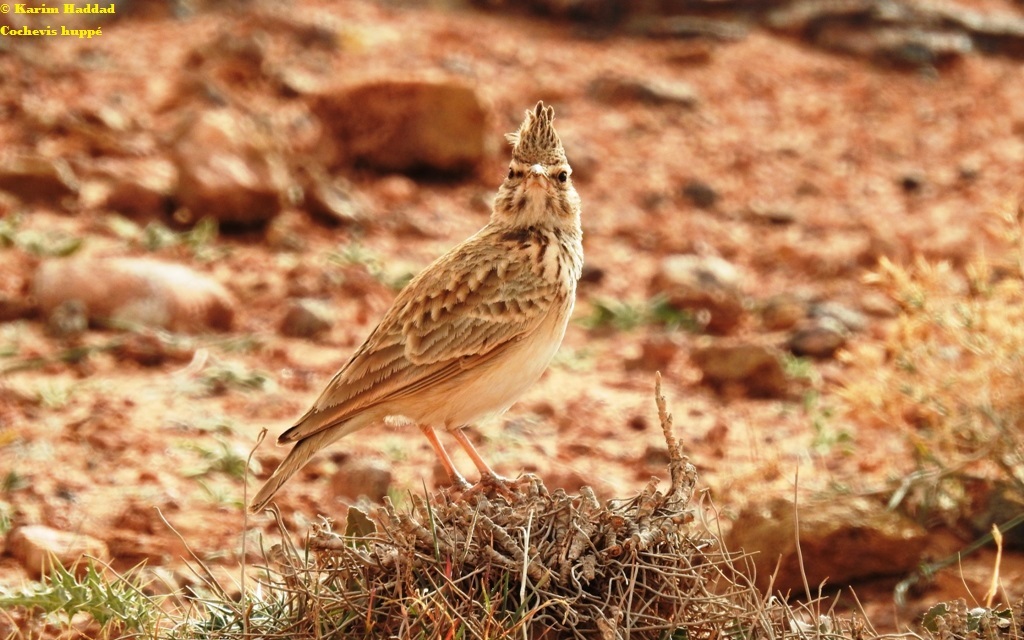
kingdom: Animalia
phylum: Chordata
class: Aves
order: Passeriformes
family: Alaudidae
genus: Galerida
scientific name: Galerida cristata
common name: Crested lark
